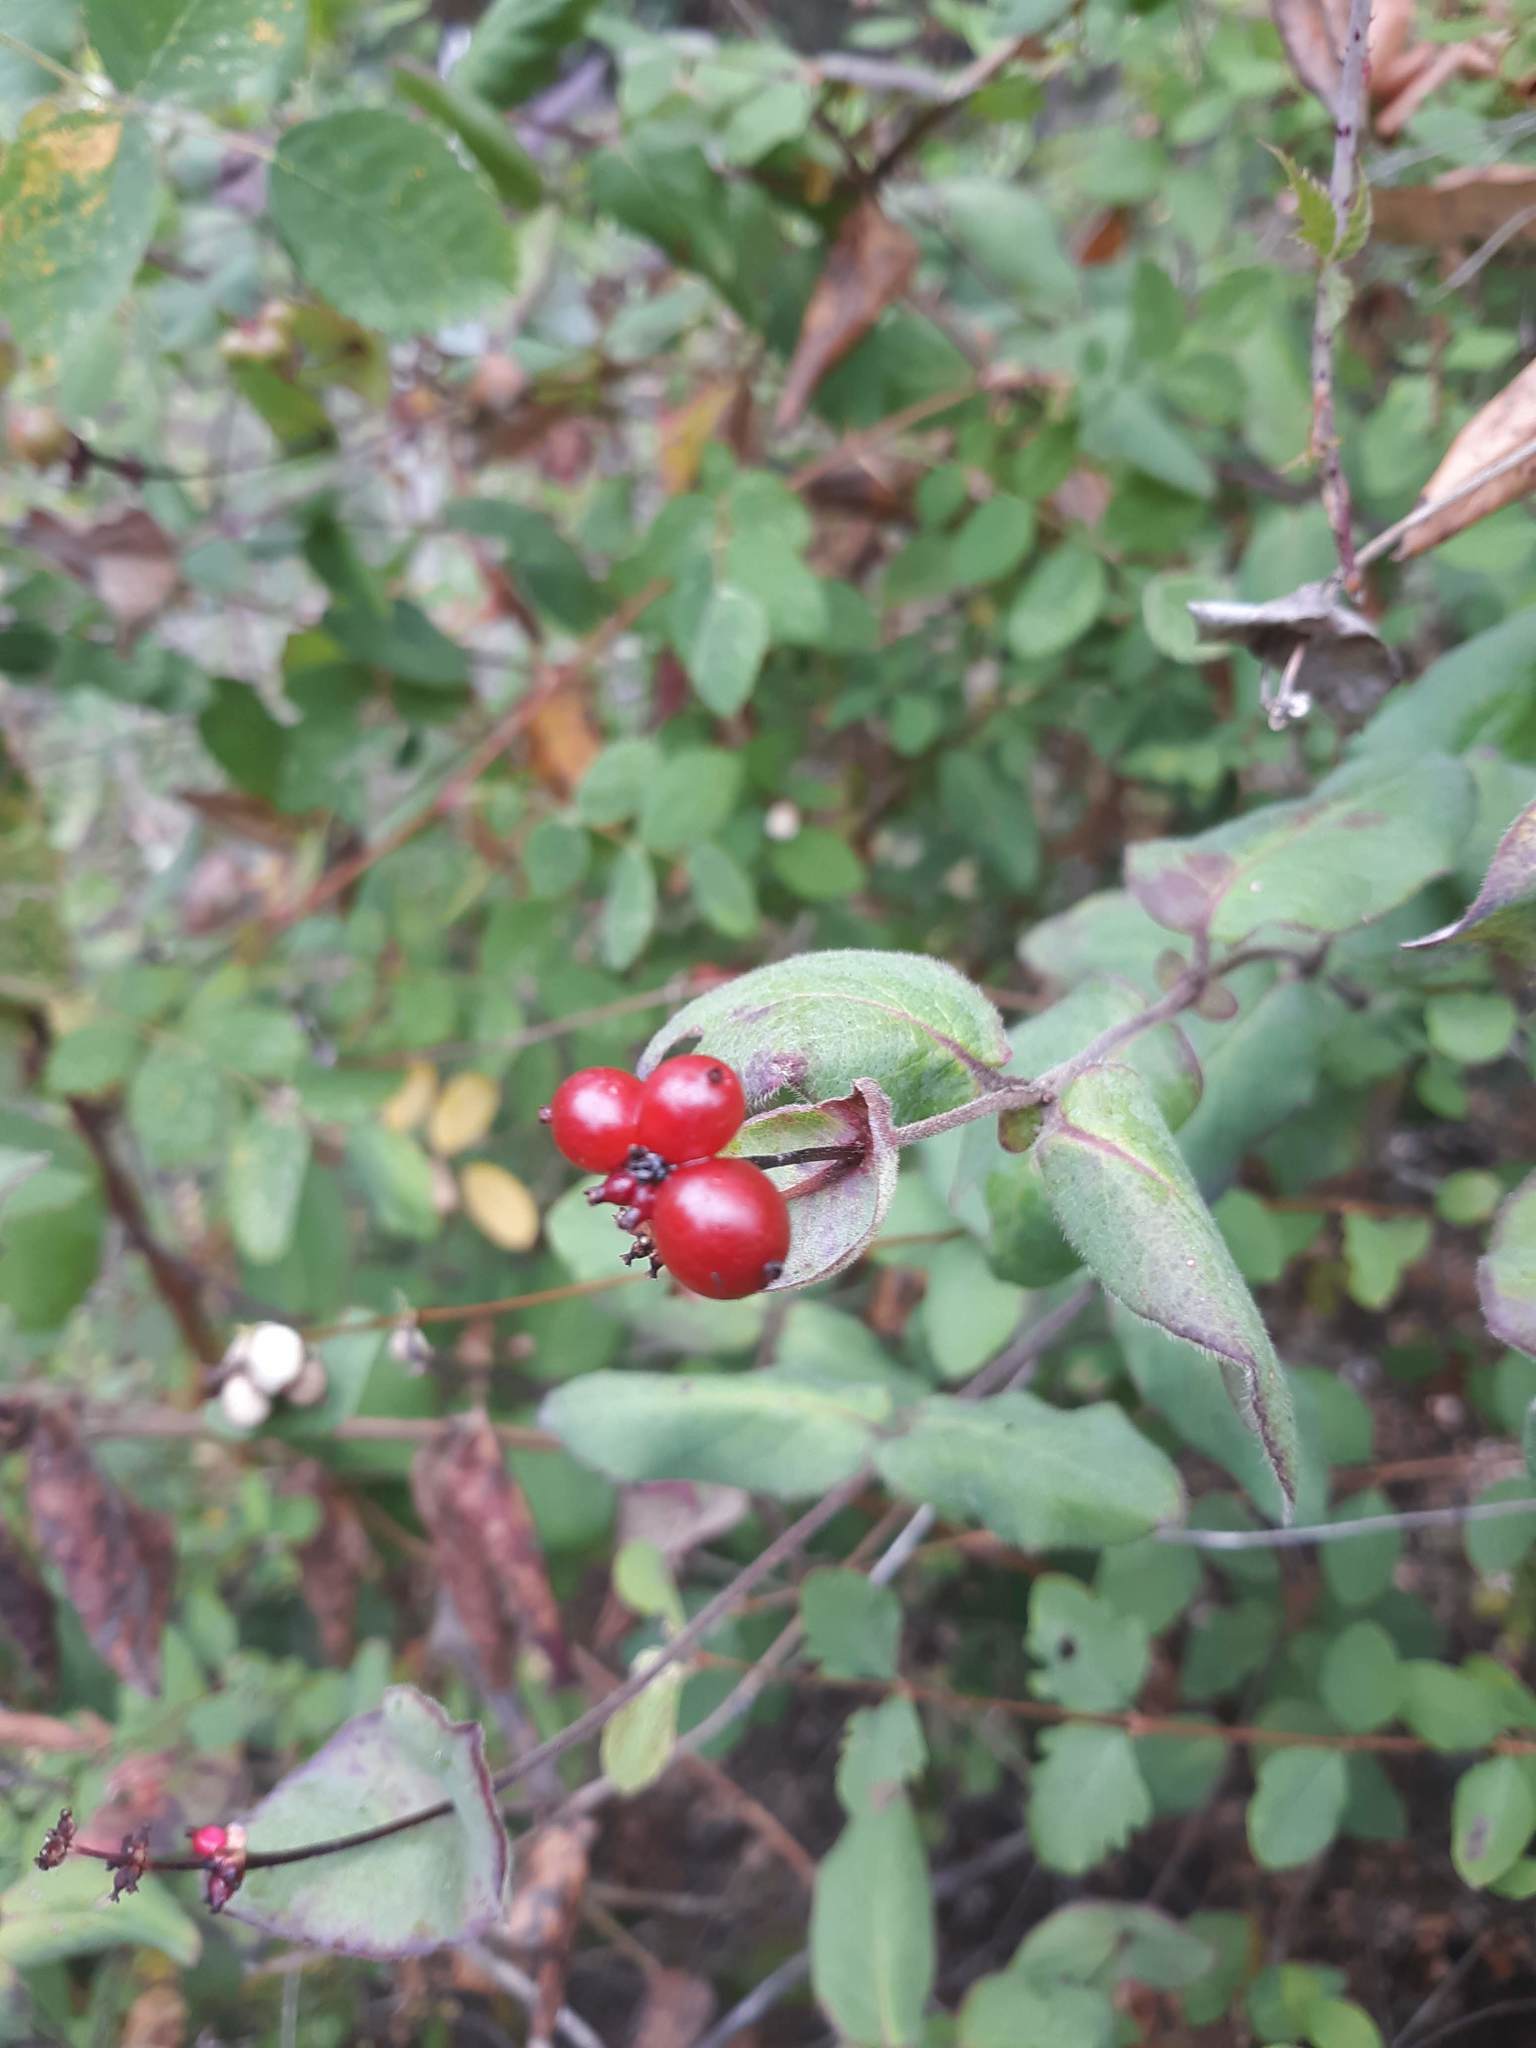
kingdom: Plantae
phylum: Tracheophyta
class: Magnoliopsida
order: Dipsacales
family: Caprifoliaceae
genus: Lonicera
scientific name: Lonicera hispidula
